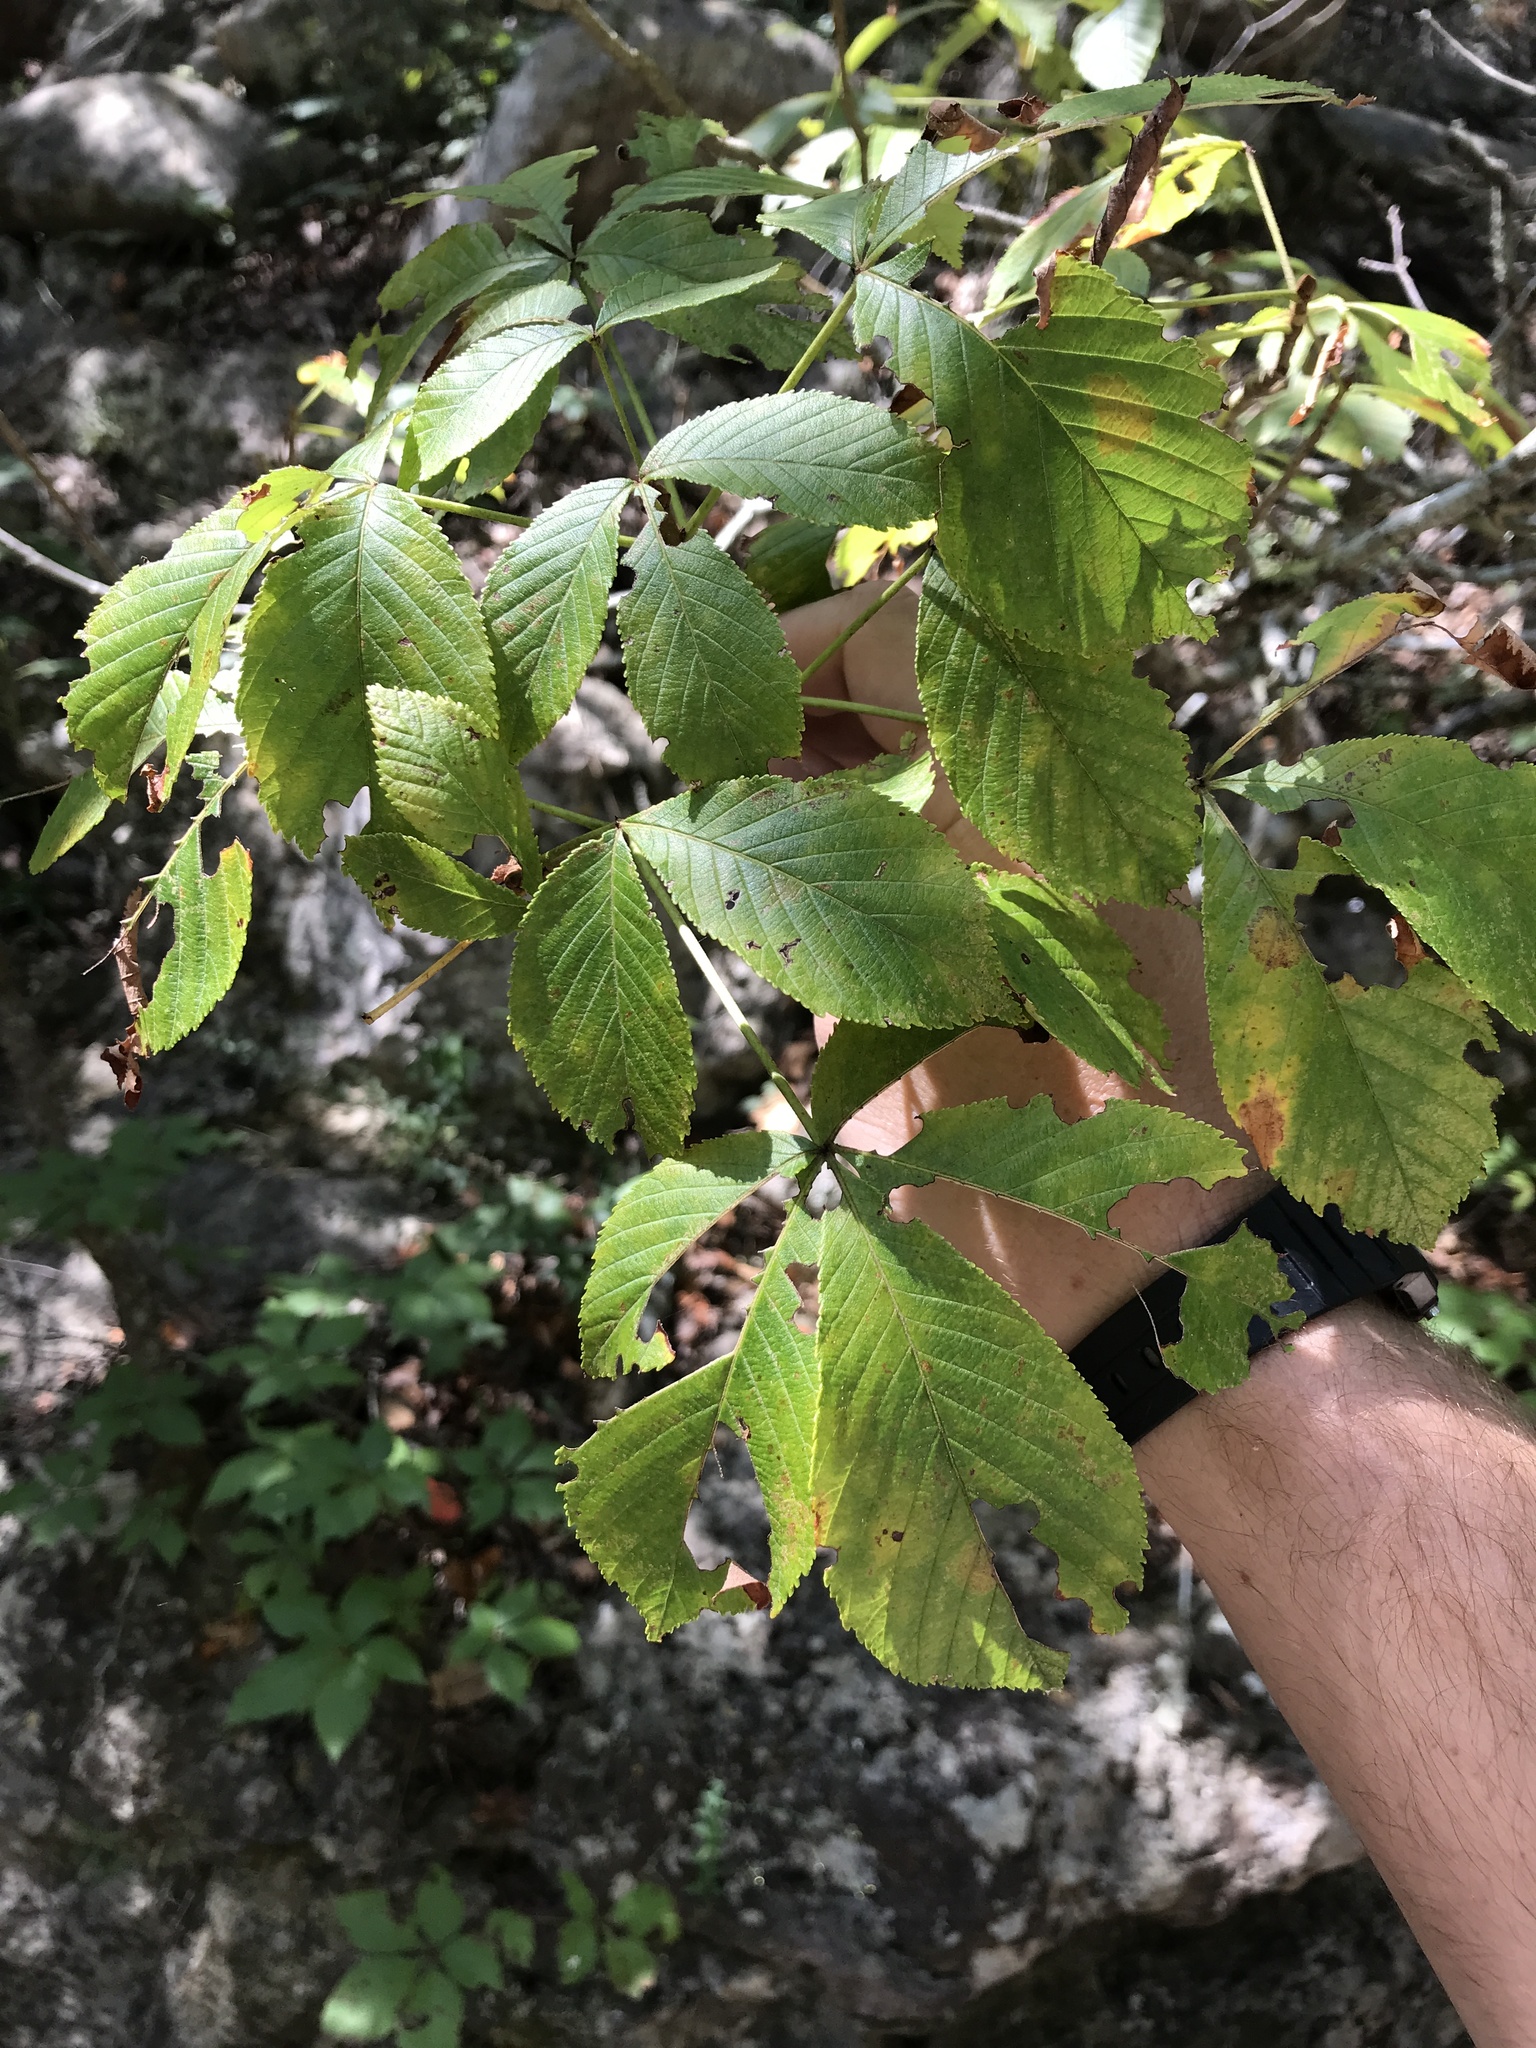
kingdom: Plantae
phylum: Tracheophyta
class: Magnoliopsida
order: Sapindales
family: Sapindaceae
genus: Aesculus
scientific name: Aesculus pavia
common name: Red buckeye
